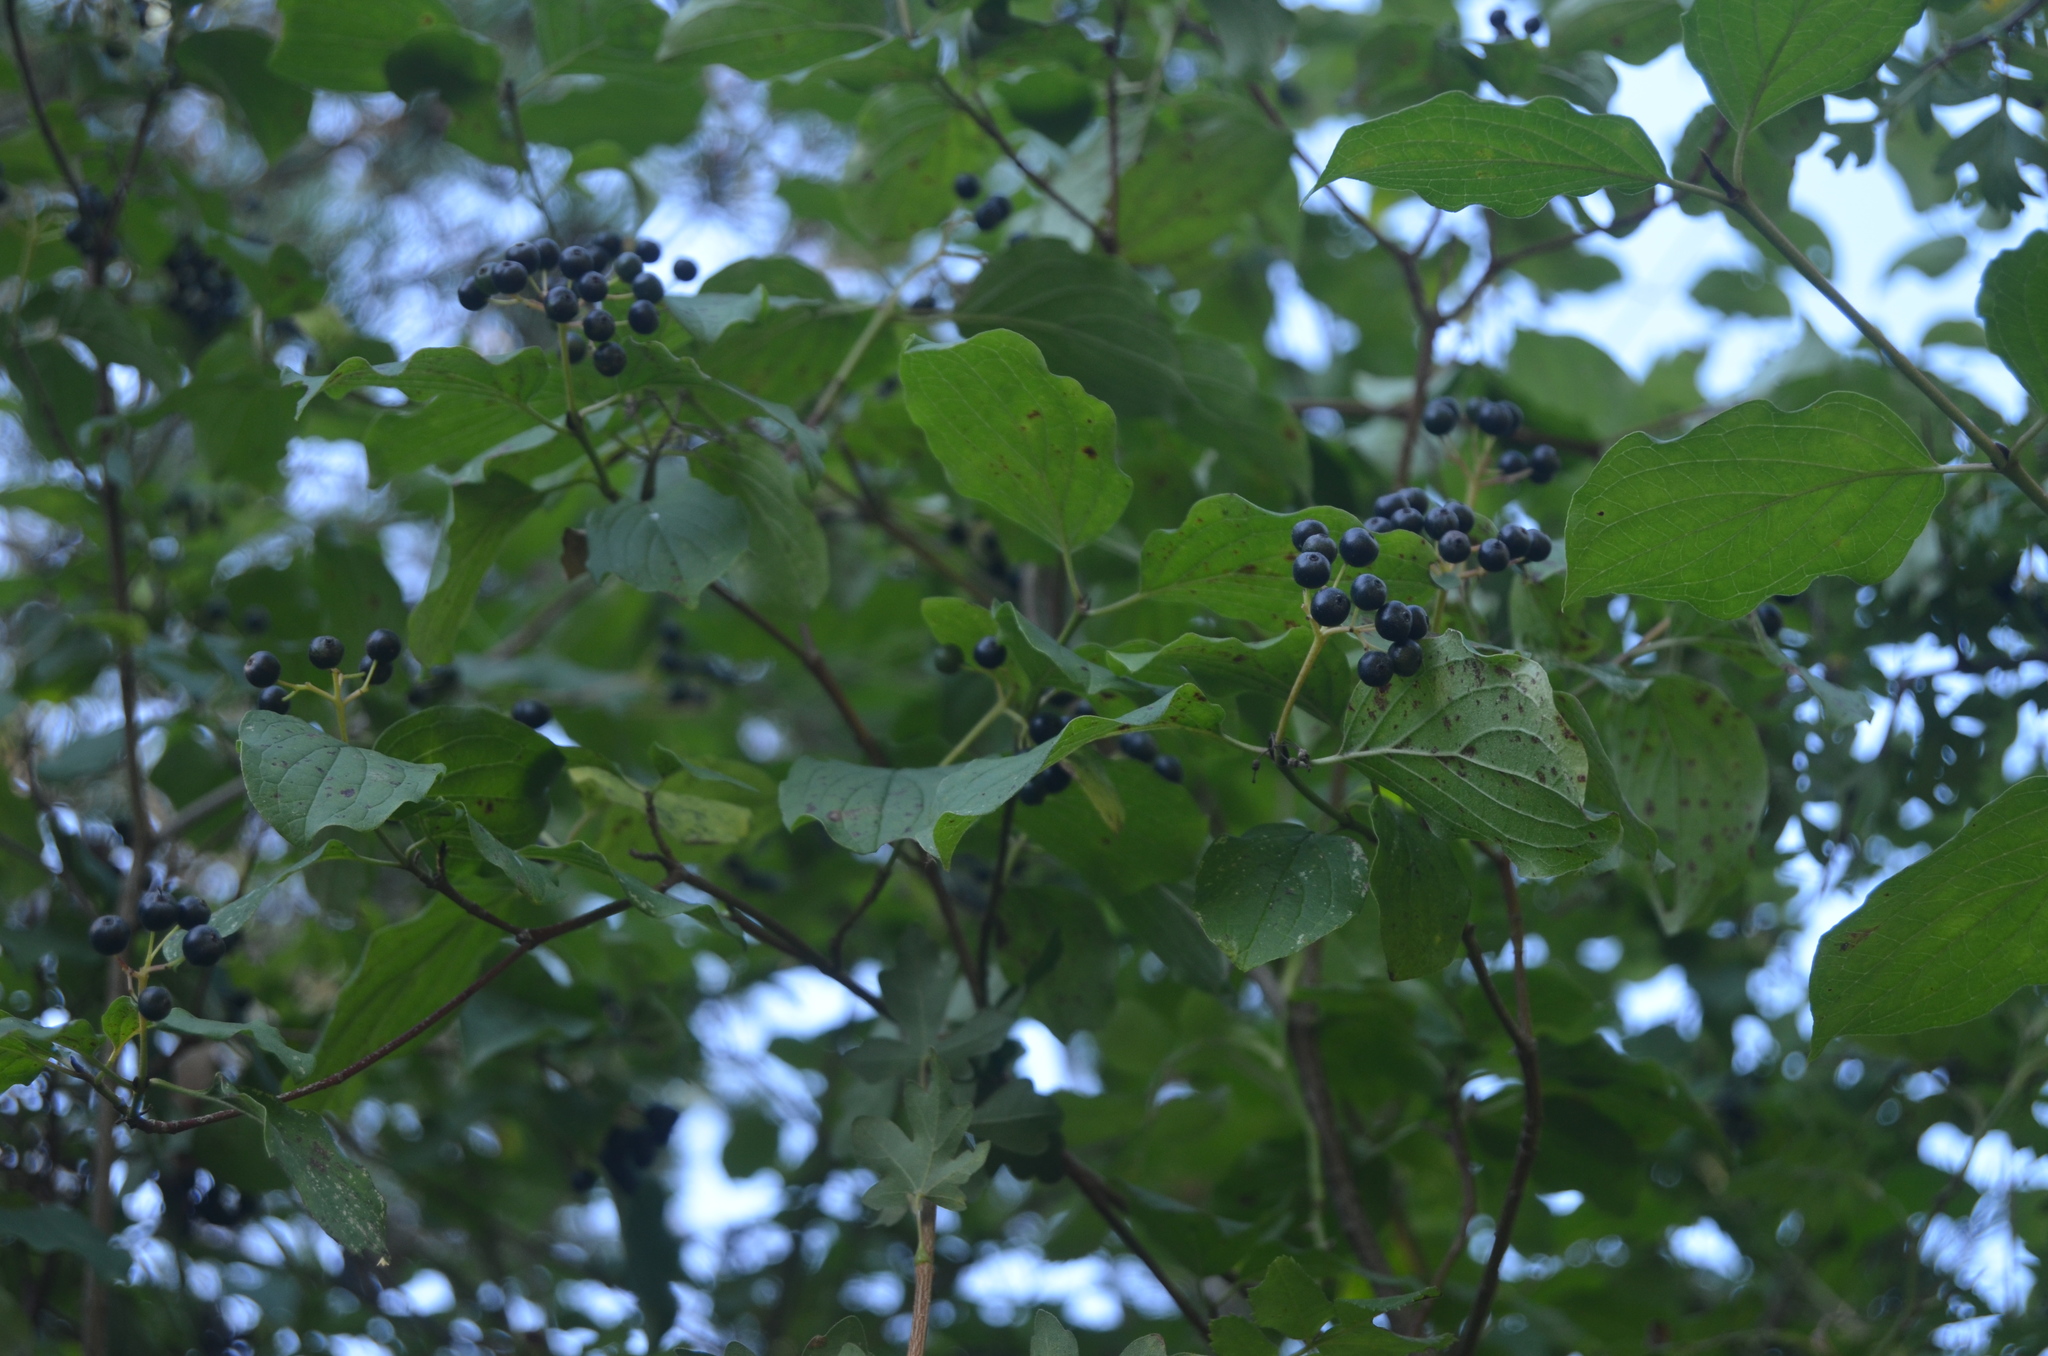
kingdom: Plantae
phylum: Tracheophyta
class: Magnoliopsida
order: Cornales
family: Cornaceae
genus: Cornus
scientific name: Cornus sanguinea
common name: Dogwood
